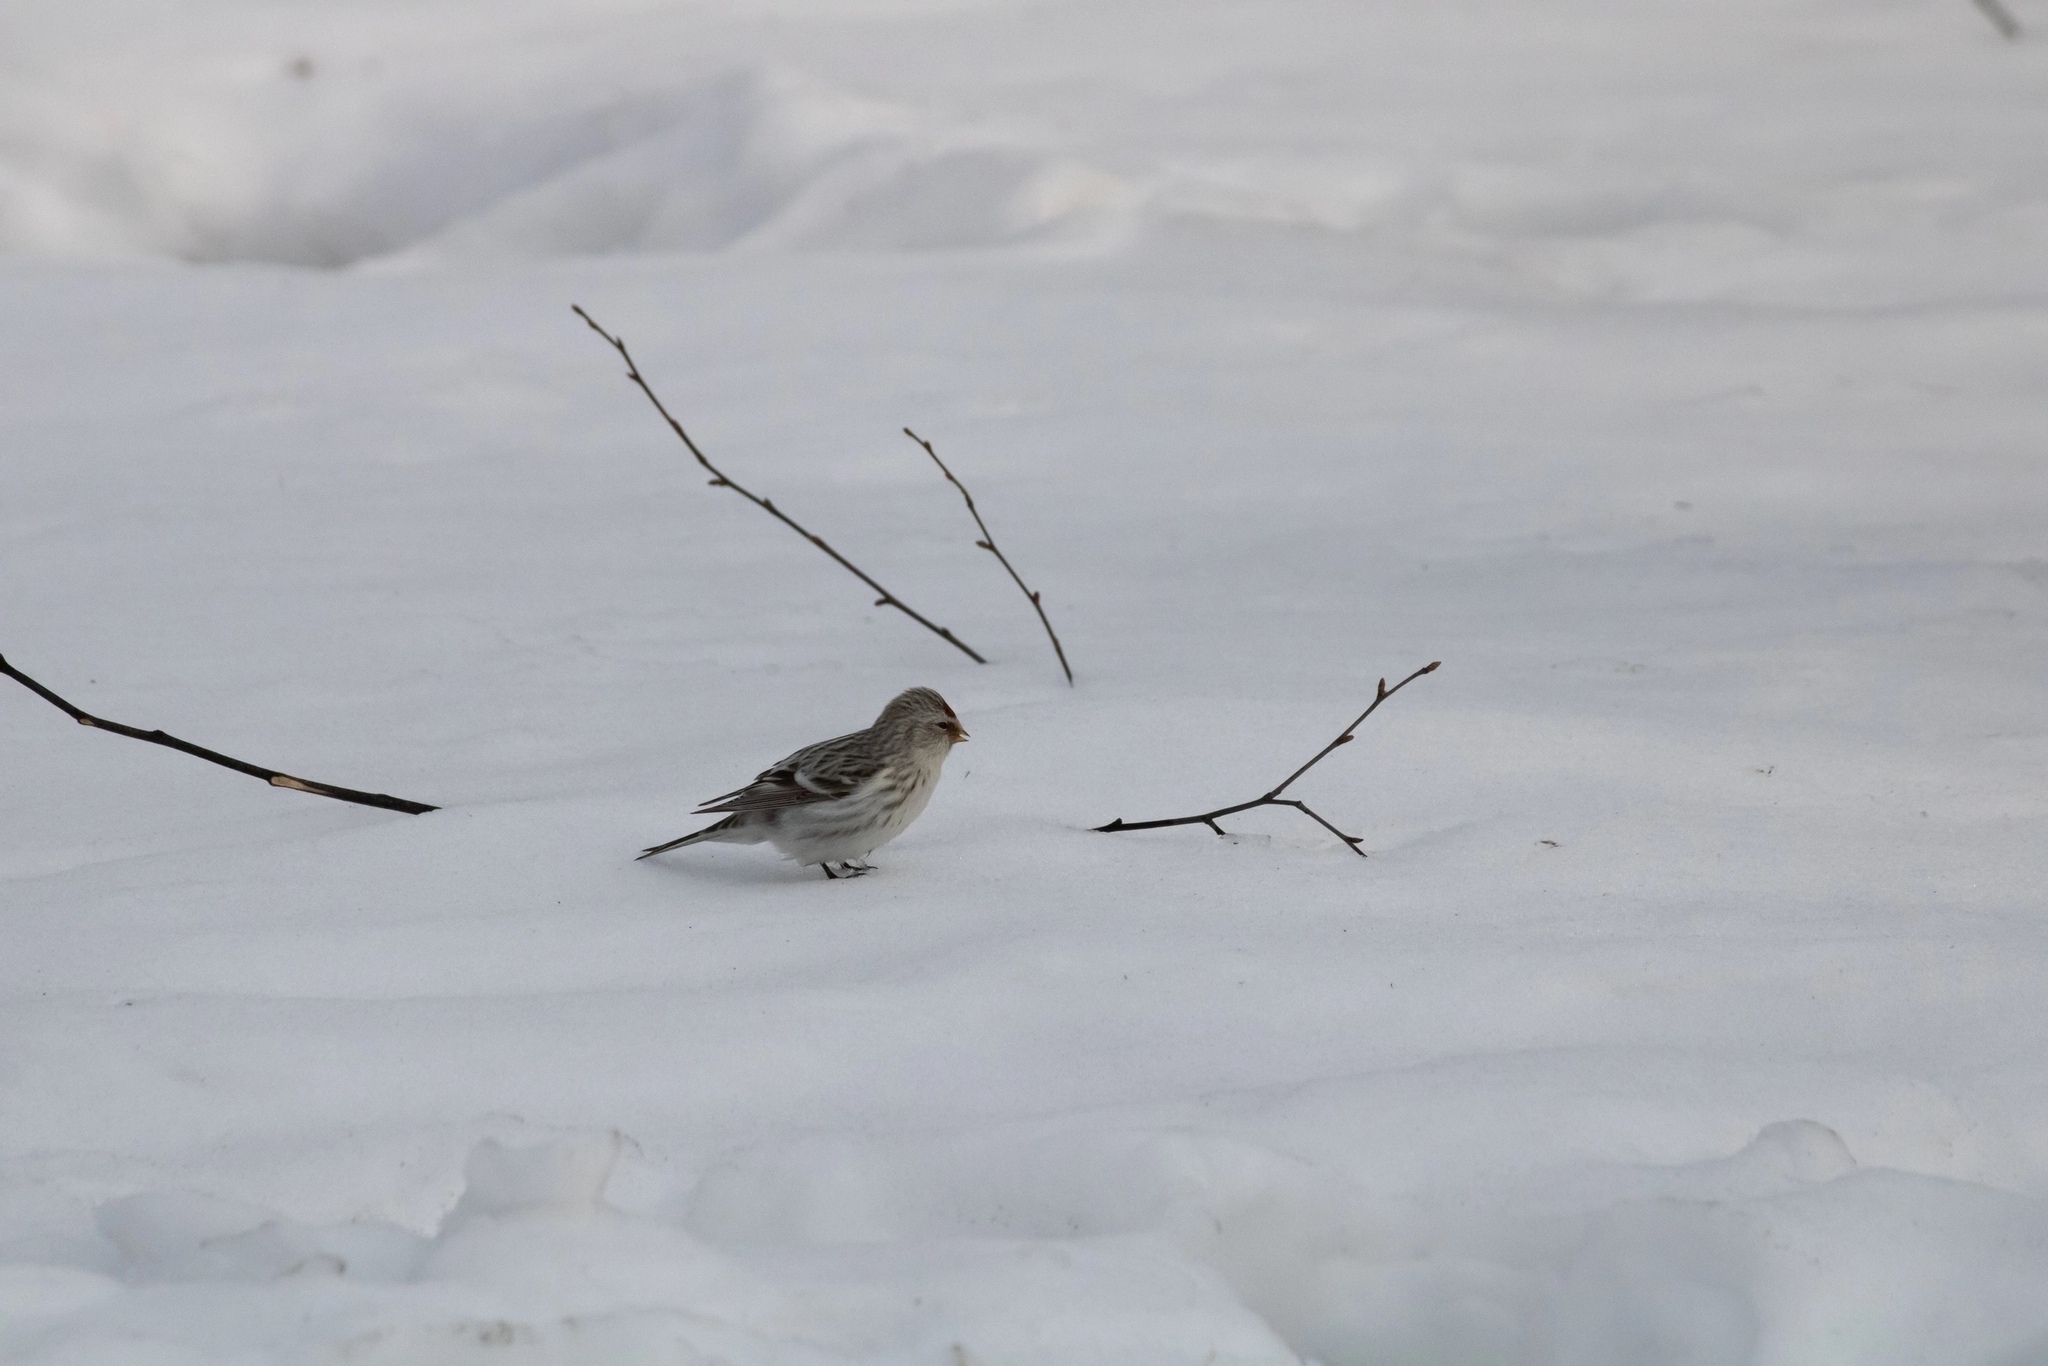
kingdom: Animalia
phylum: Chordata
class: Aves
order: Passeriformes
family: Fringillidae
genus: Acanthis
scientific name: Acanthis flammea
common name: Common redpoll
